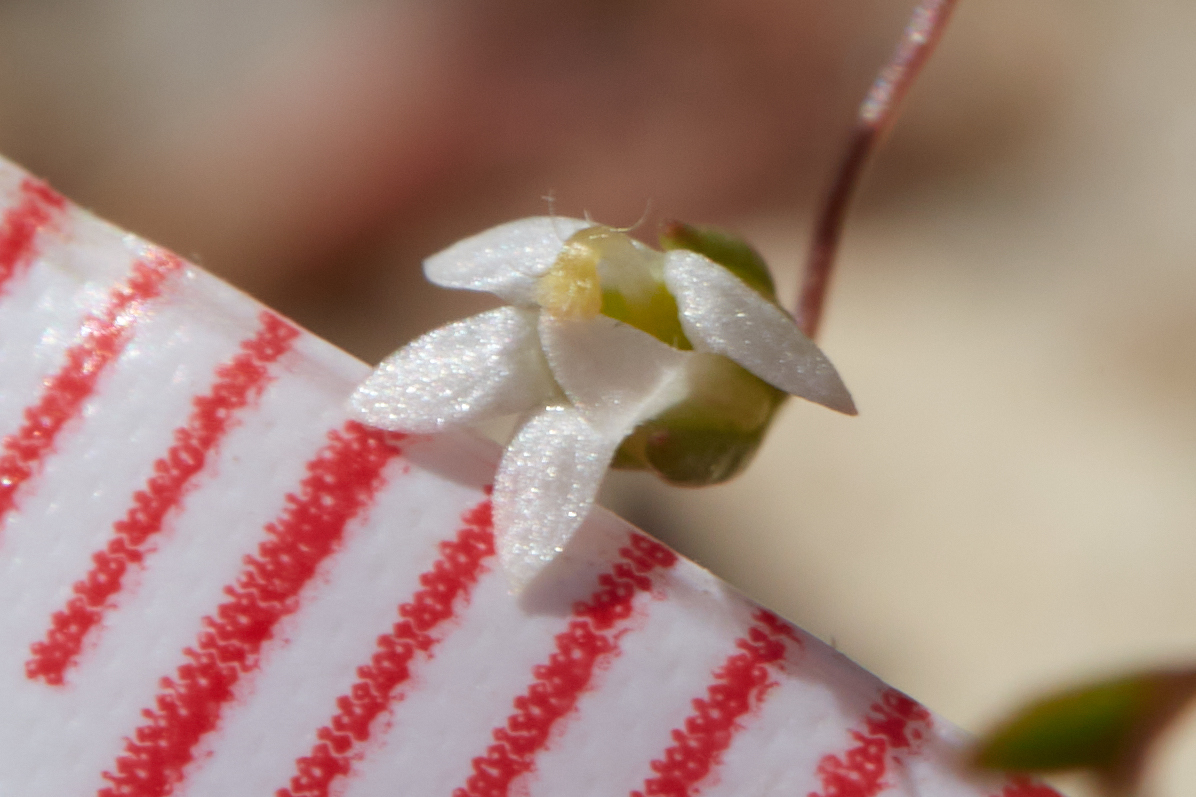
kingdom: Plantae
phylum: Tracheophyta
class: Magnoliopsida
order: Asterales
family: Campanulaceae
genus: Nemacladus
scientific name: Nemacladus secundiflorus
